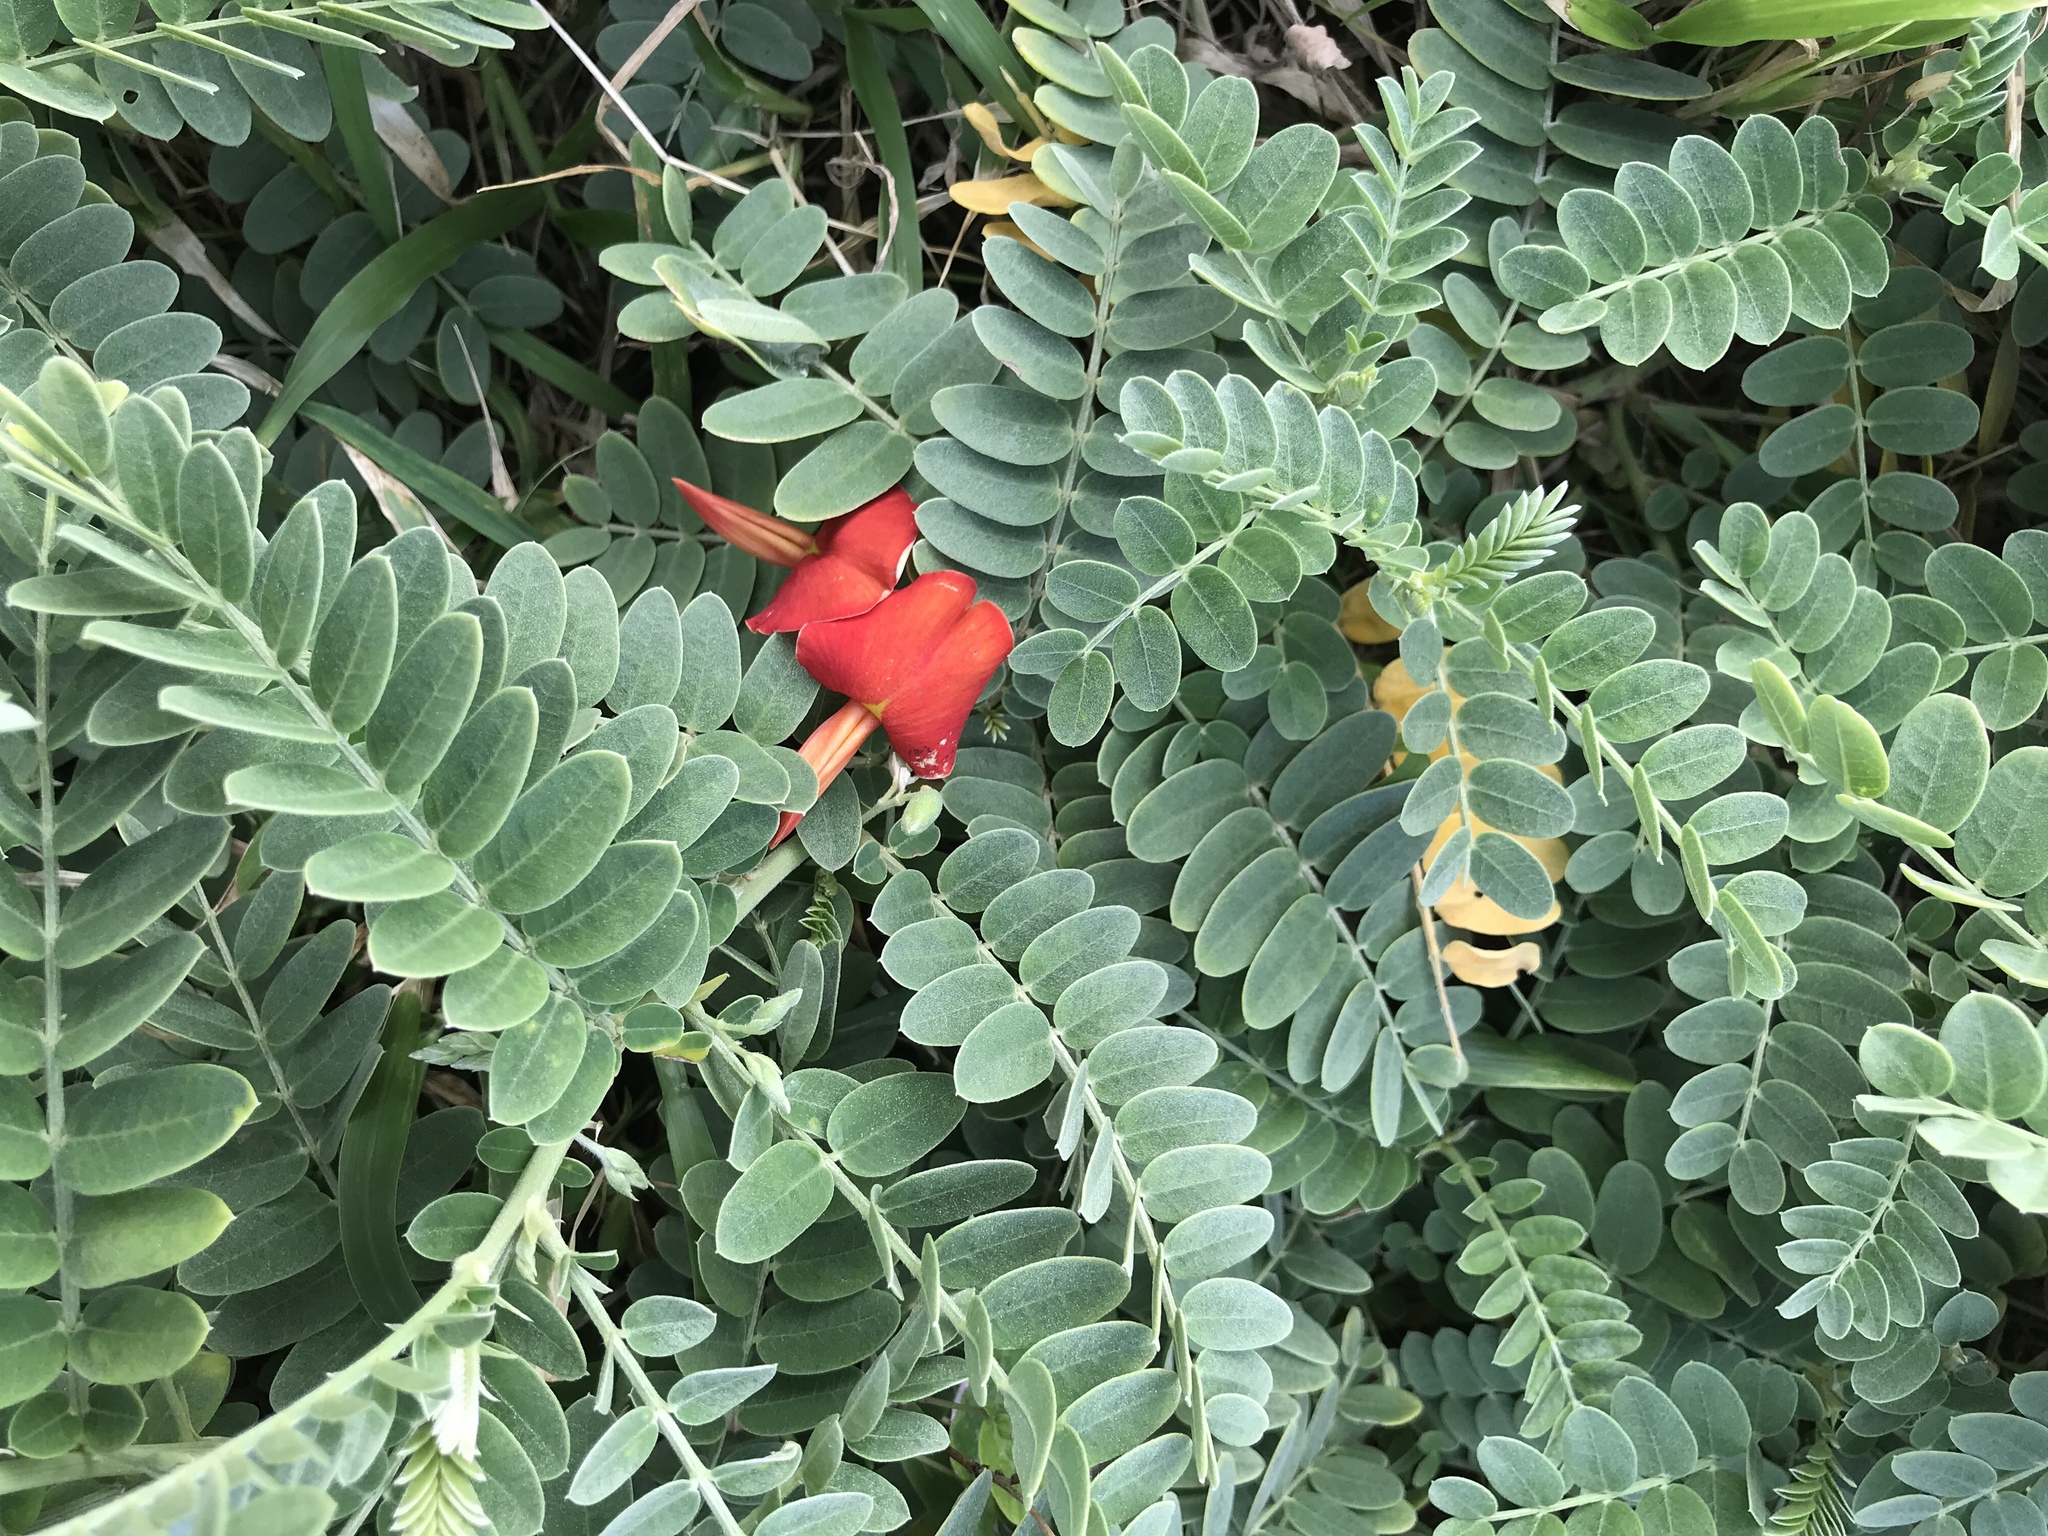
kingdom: Plantae
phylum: Tracheophyta
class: Magnoliopsida
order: Fabales
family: Fabaceae
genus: Sesbania
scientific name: Sesbania tomentosa
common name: `ohai
